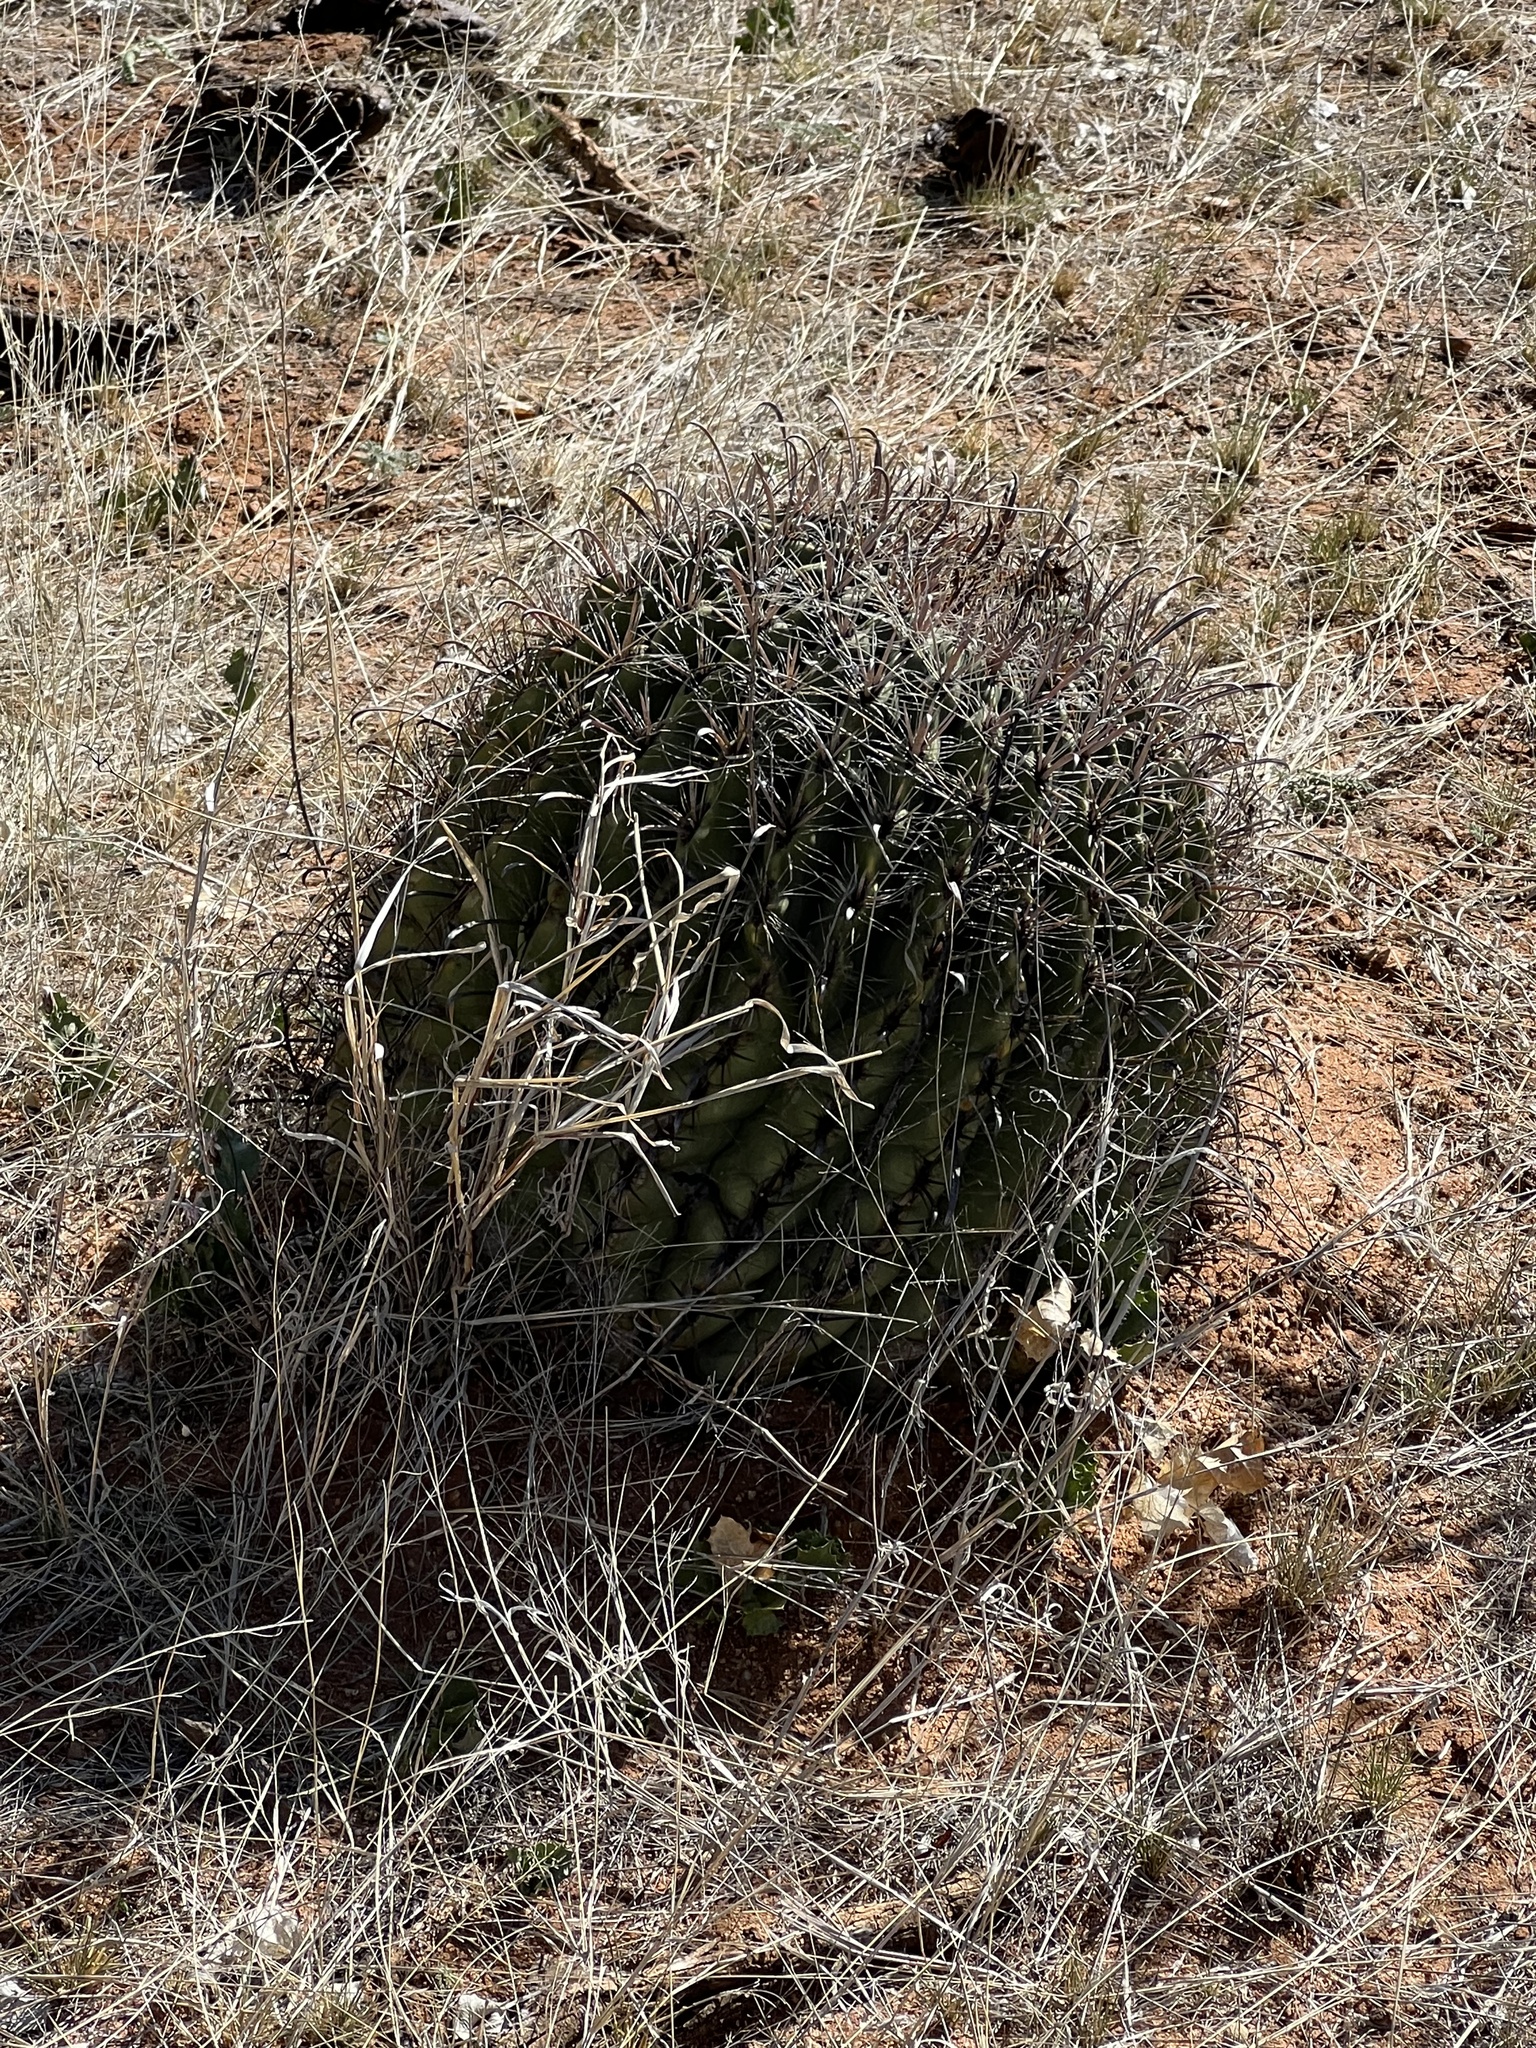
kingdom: Plantae
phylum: Tracheophyta
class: Magnoliopsida
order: Caryophyllales
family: Cactaceae
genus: Ferocactus
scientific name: Ferocactus wislizeni
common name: Candy barrel cactus
